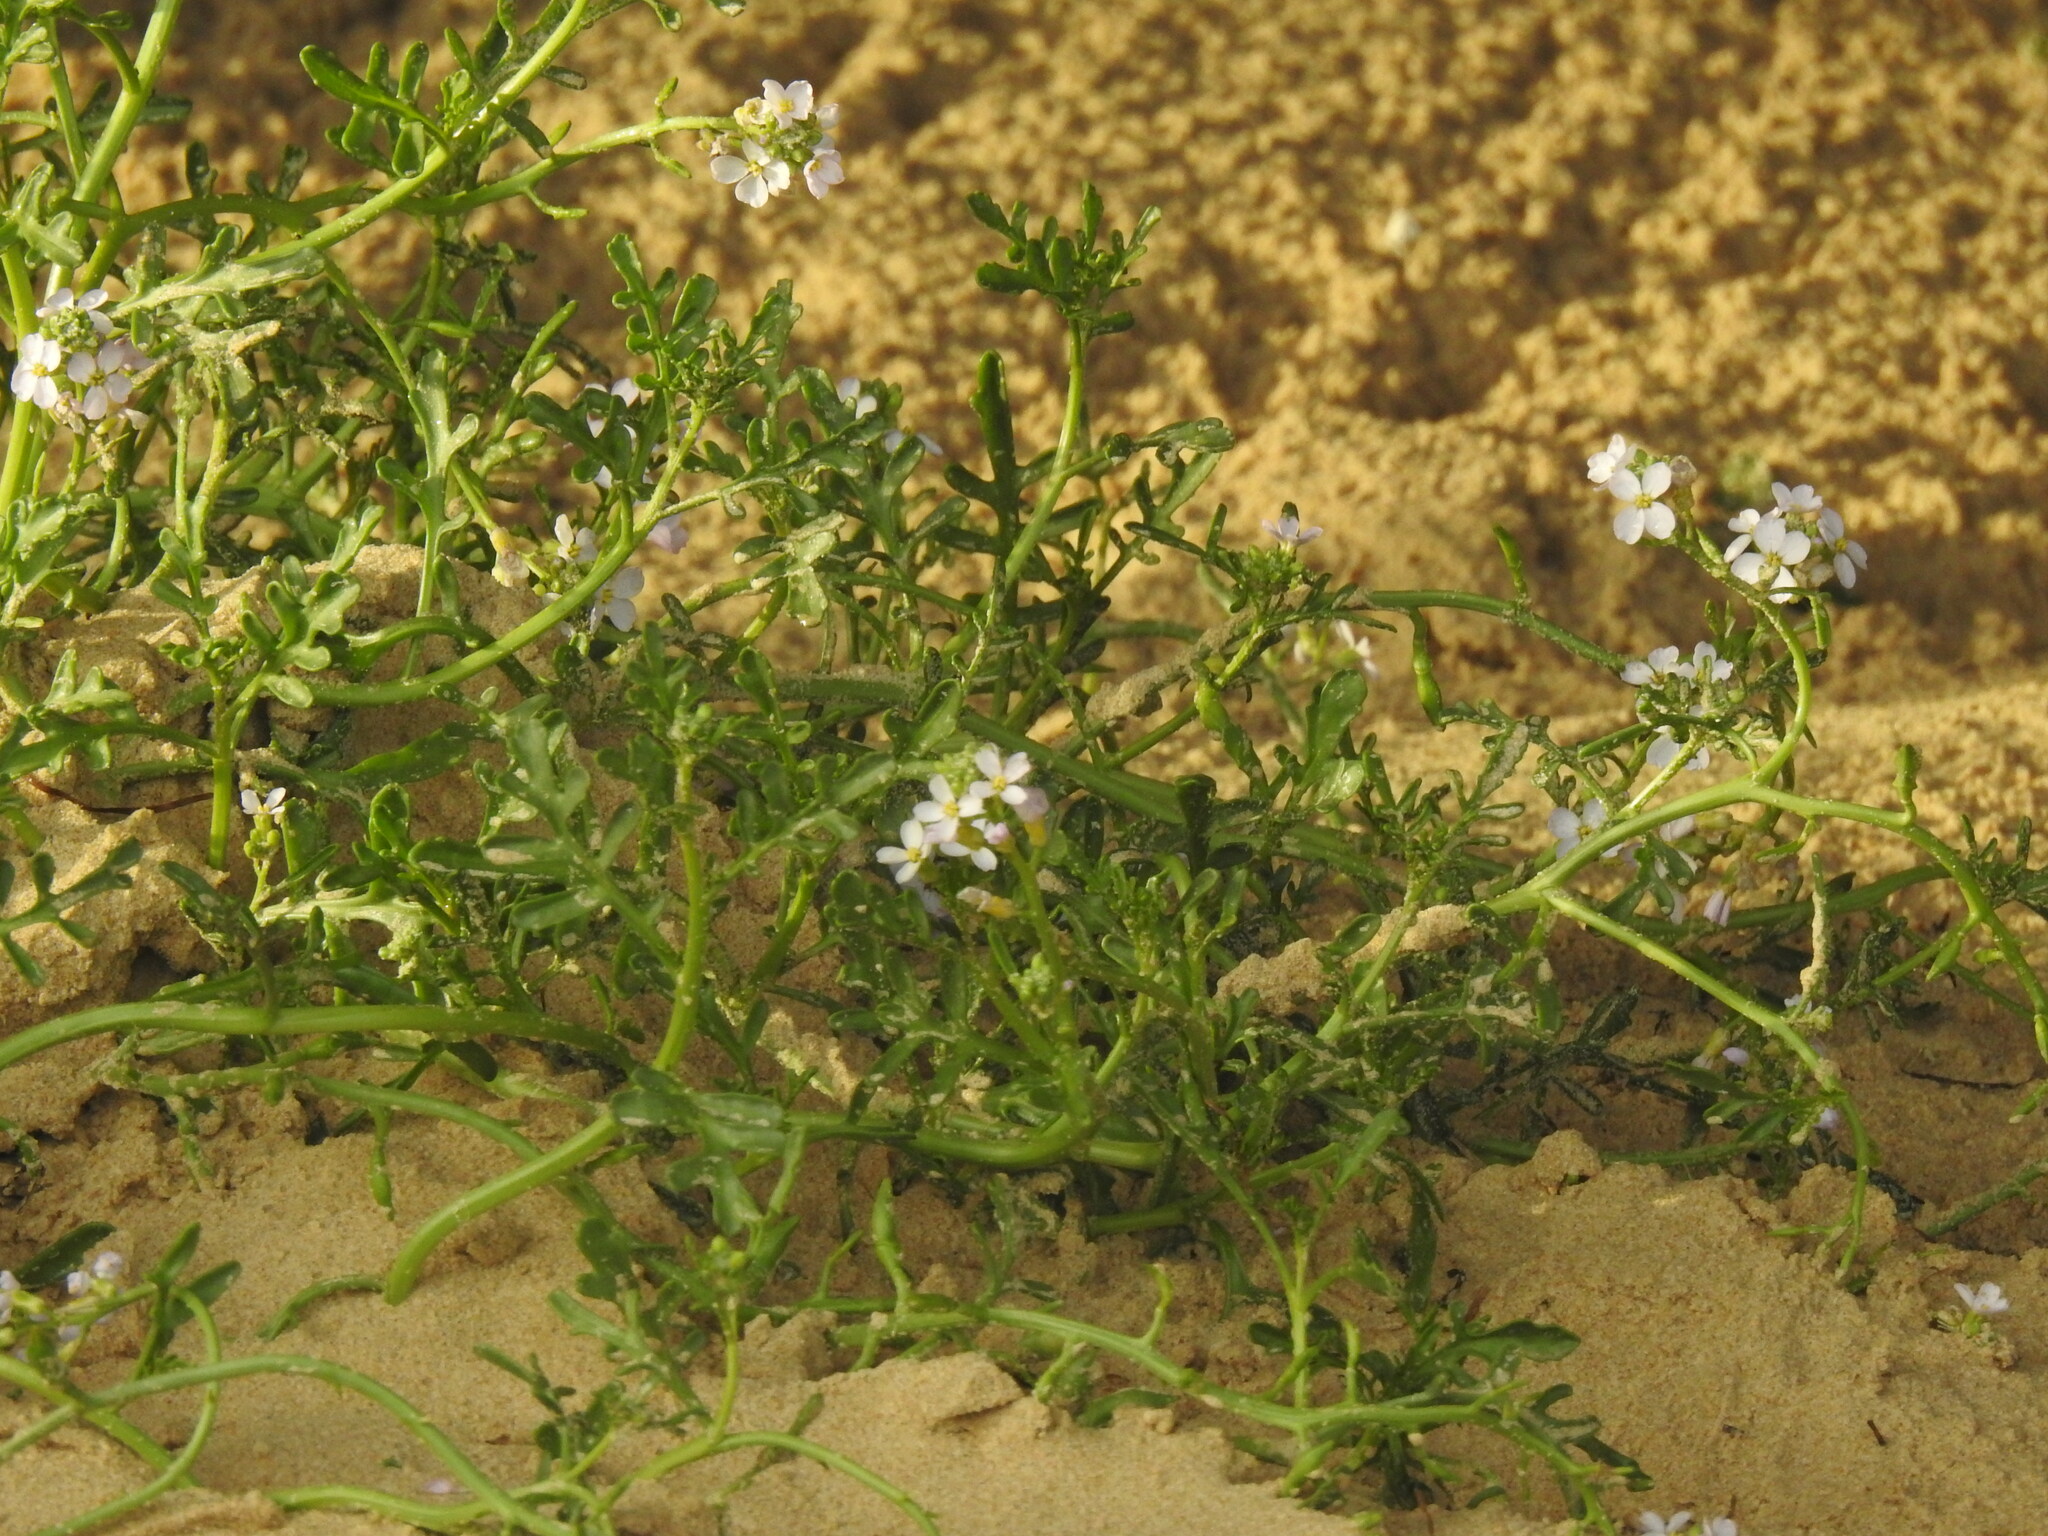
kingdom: Plantae
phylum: Tracheophyta
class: Magnoliopsida
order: Brassicales
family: Brassicaceae
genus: Cakile
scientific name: Cakile maritima
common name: Sea rocket
